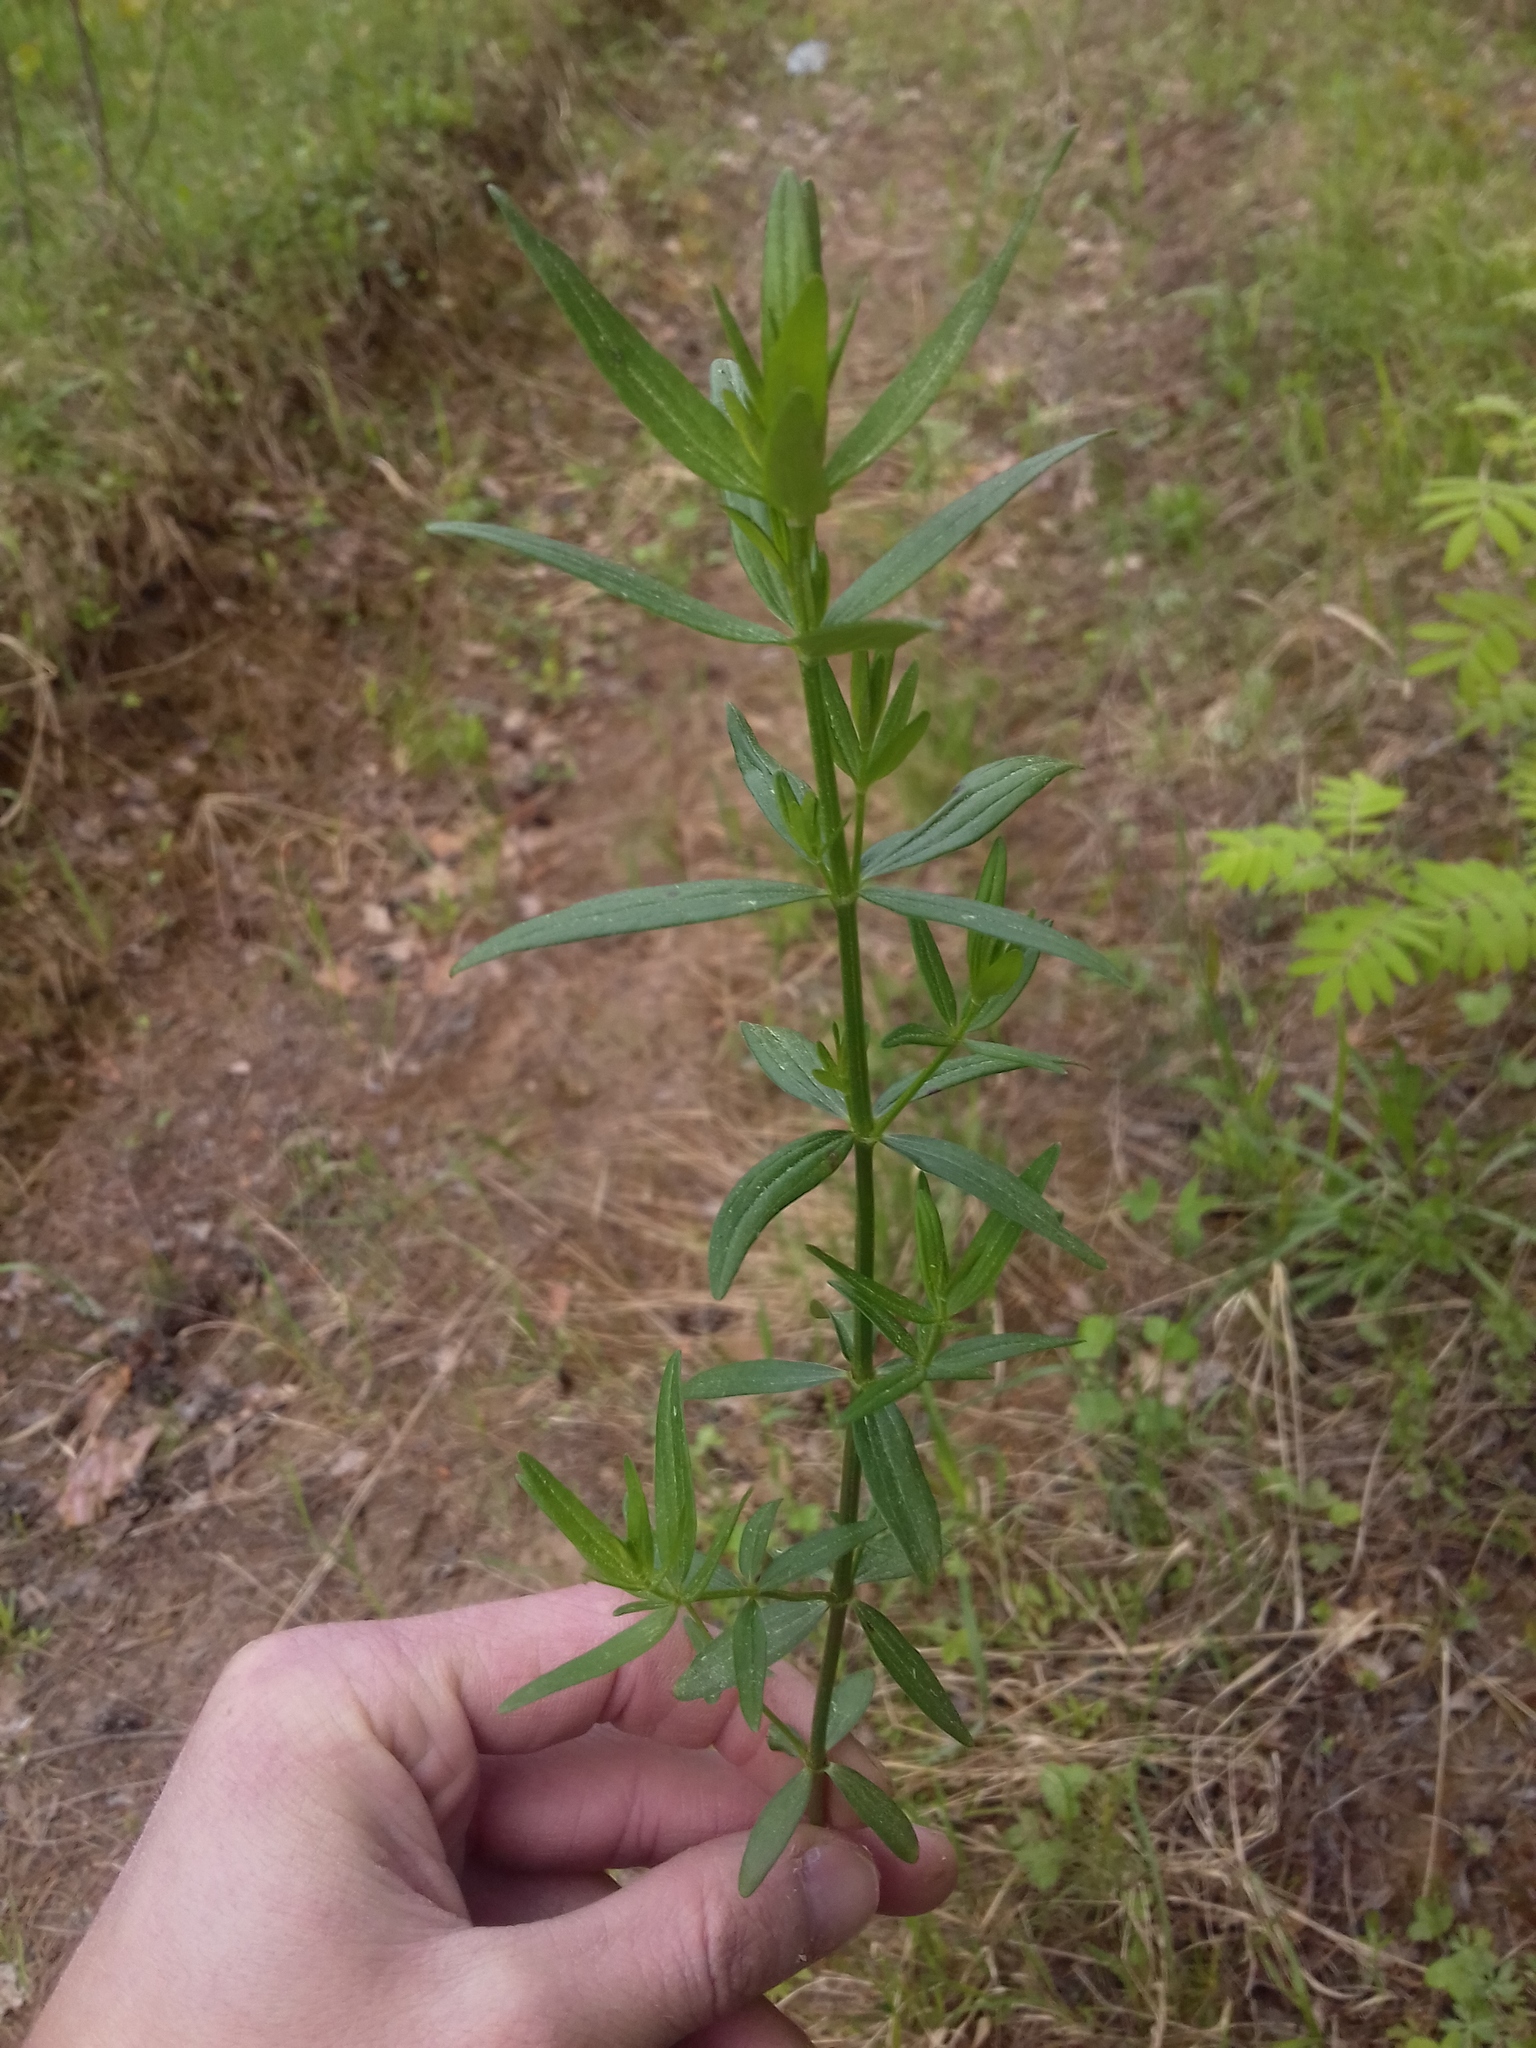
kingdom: Plantae
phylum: Tracheophyta
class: Magnoliopsida
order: Gentianales
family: Rubiaceae
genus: Galium
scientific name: Galium boreale
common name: Northern bedstraw
